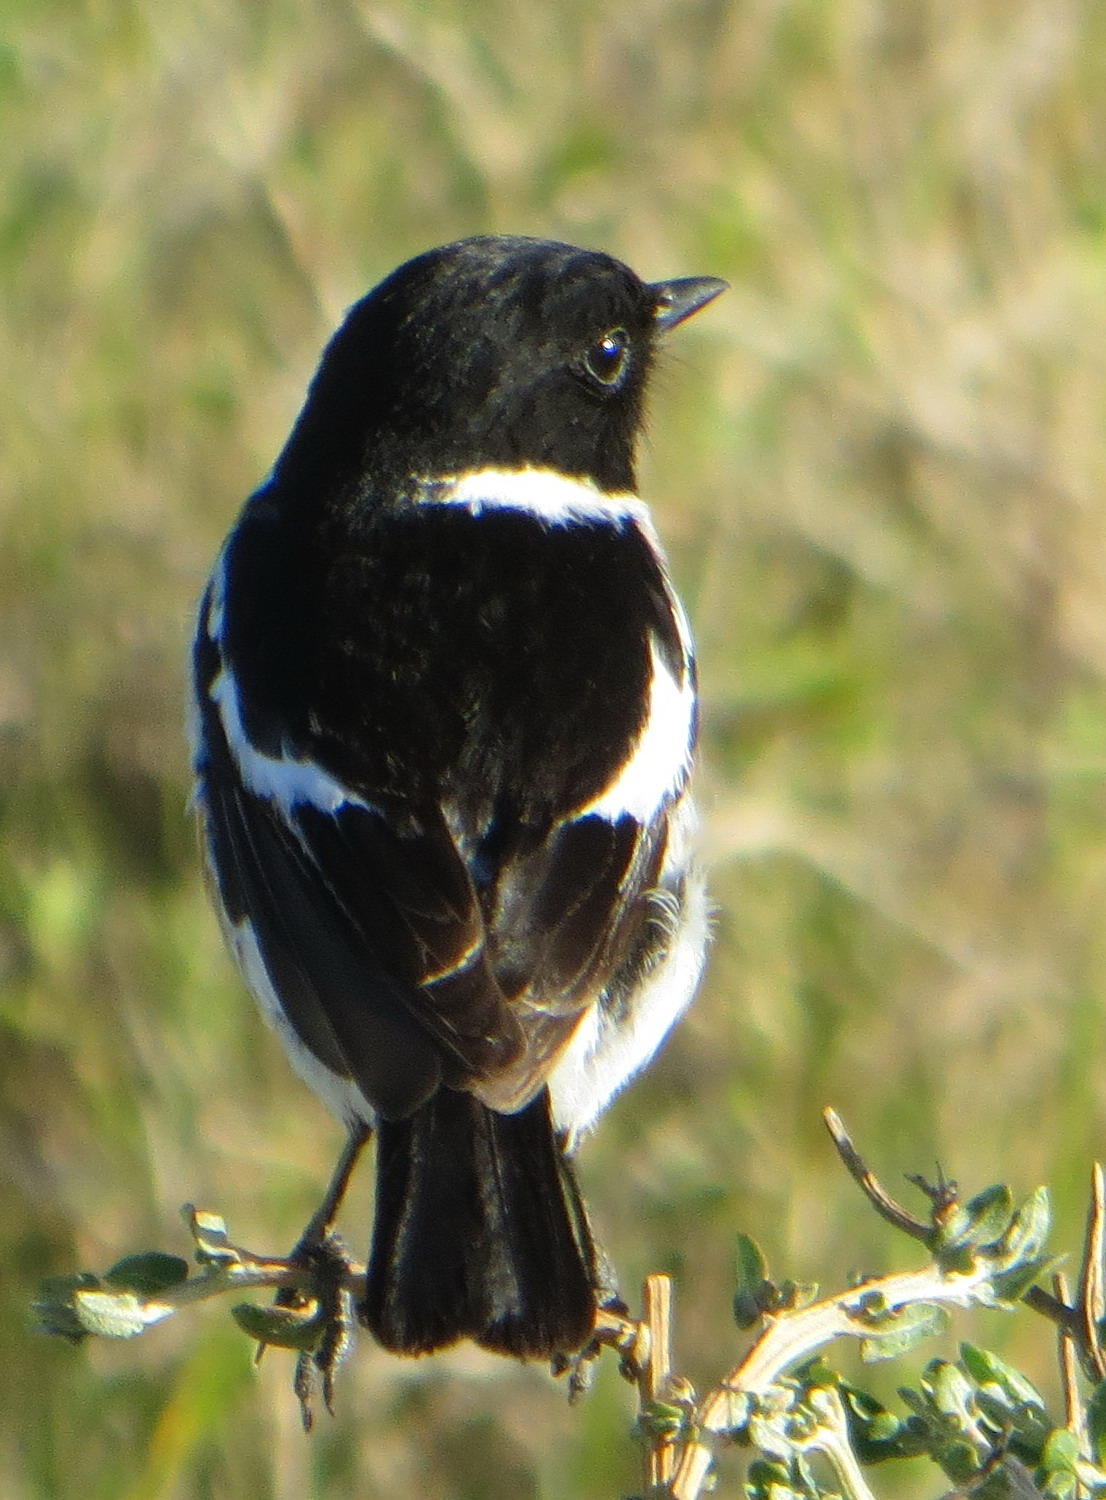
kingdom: Animalia
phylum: Chordata
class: Aves
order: Passeriformes
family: Muscicapidae
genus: Saxicola
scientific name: Saxicola torquatus
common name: African stonechat
